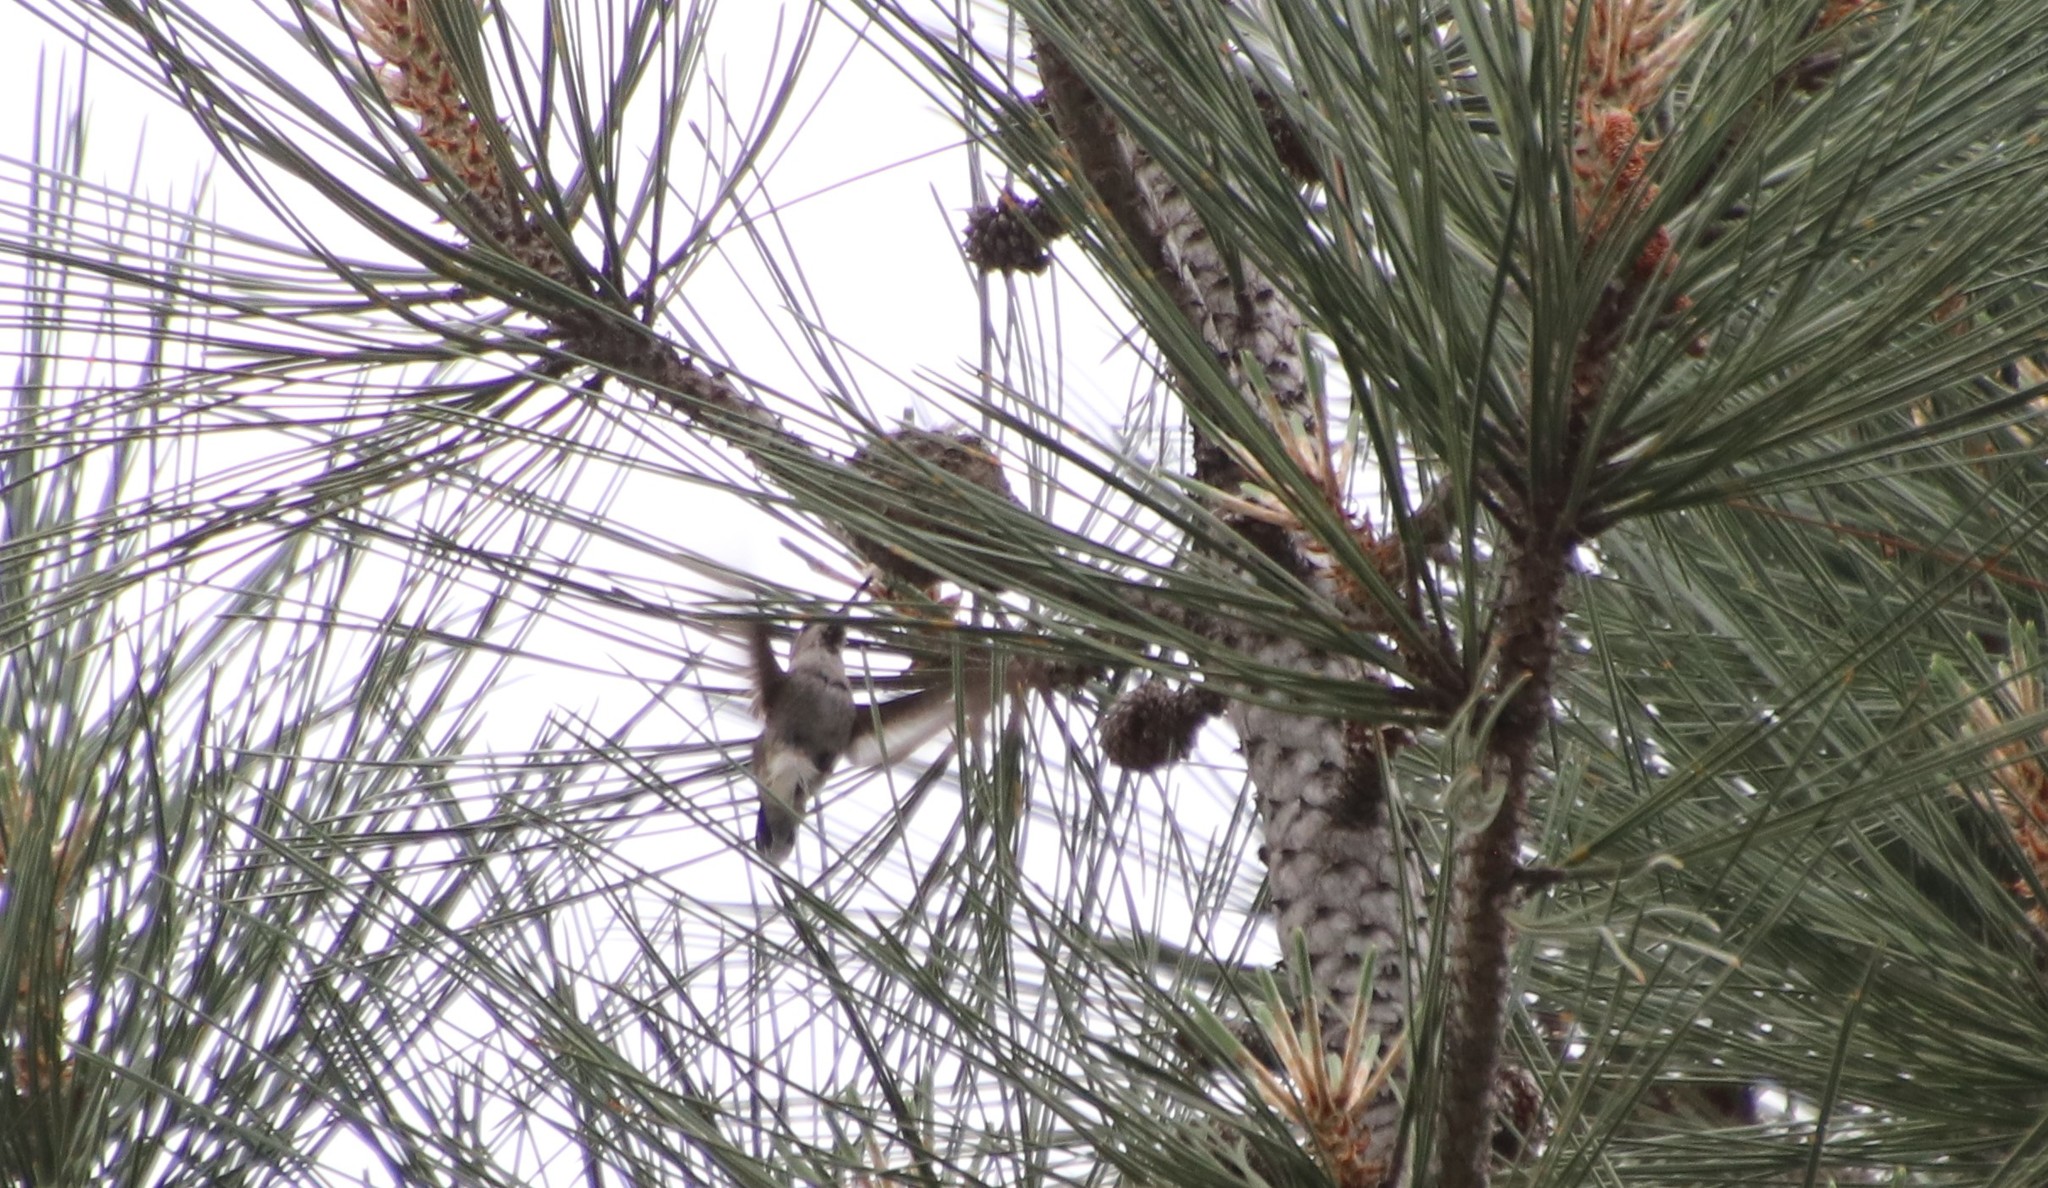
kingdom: Animalia
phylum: Chordata
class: Aves
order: Apodiformes
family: Trochilidae
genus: Calypte
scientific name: Calypte anna
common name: Anna's hummingbird
